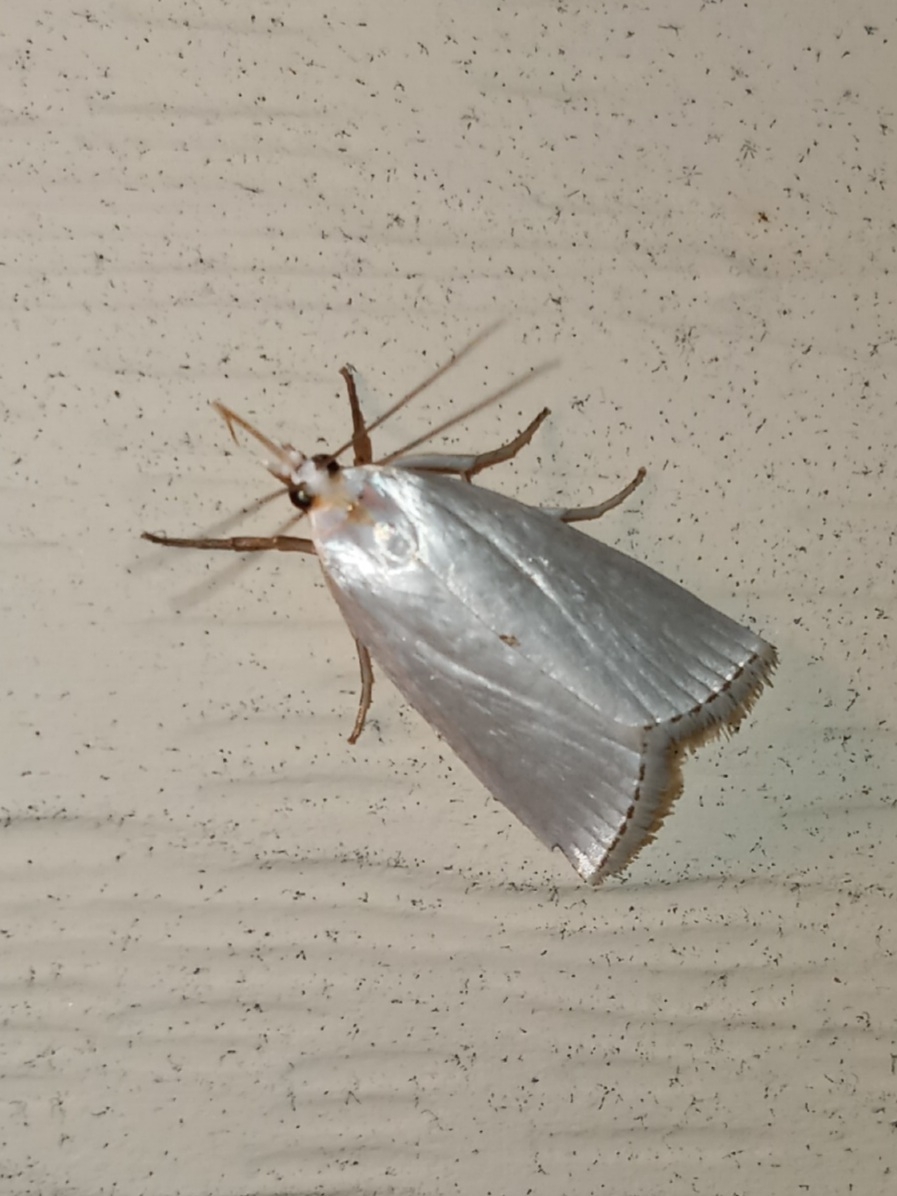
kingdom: Animalia
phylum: Arthropoda
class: Insecta
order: Lepidoptera
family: Crambidae
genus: Argyria
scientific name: Argyria nivalis
